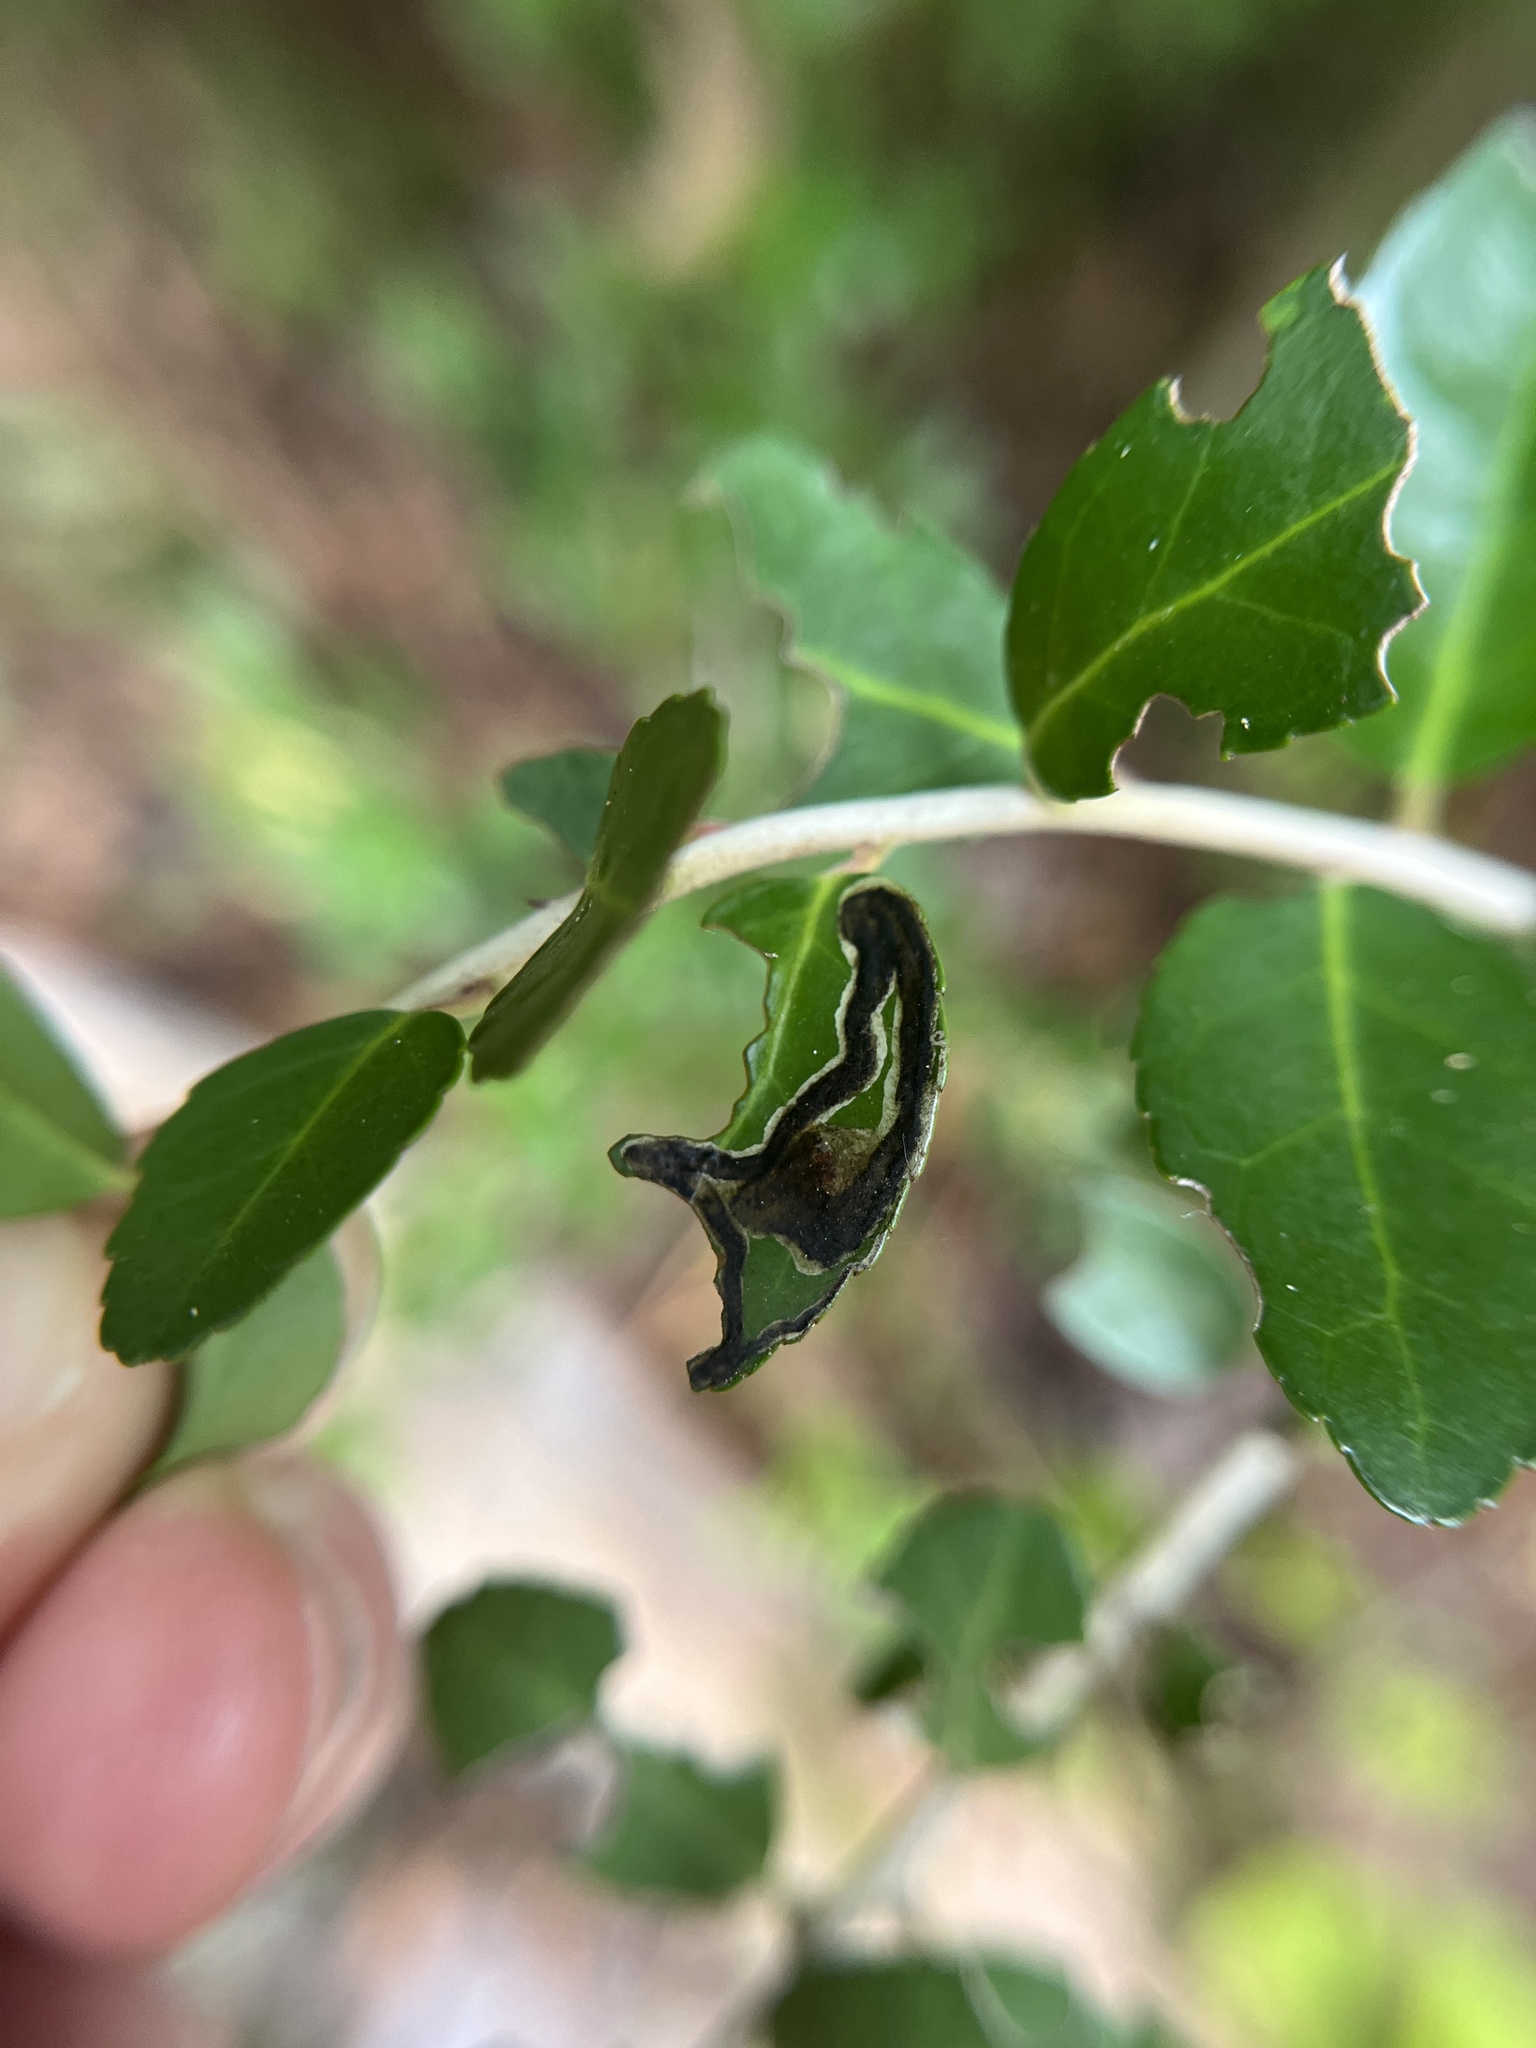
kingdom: Animalia
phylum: Arthropoda
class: Insecta
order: Diptera
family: Agromyzidae
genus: Phytomyza
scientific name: Phytomyza vomitoriae
